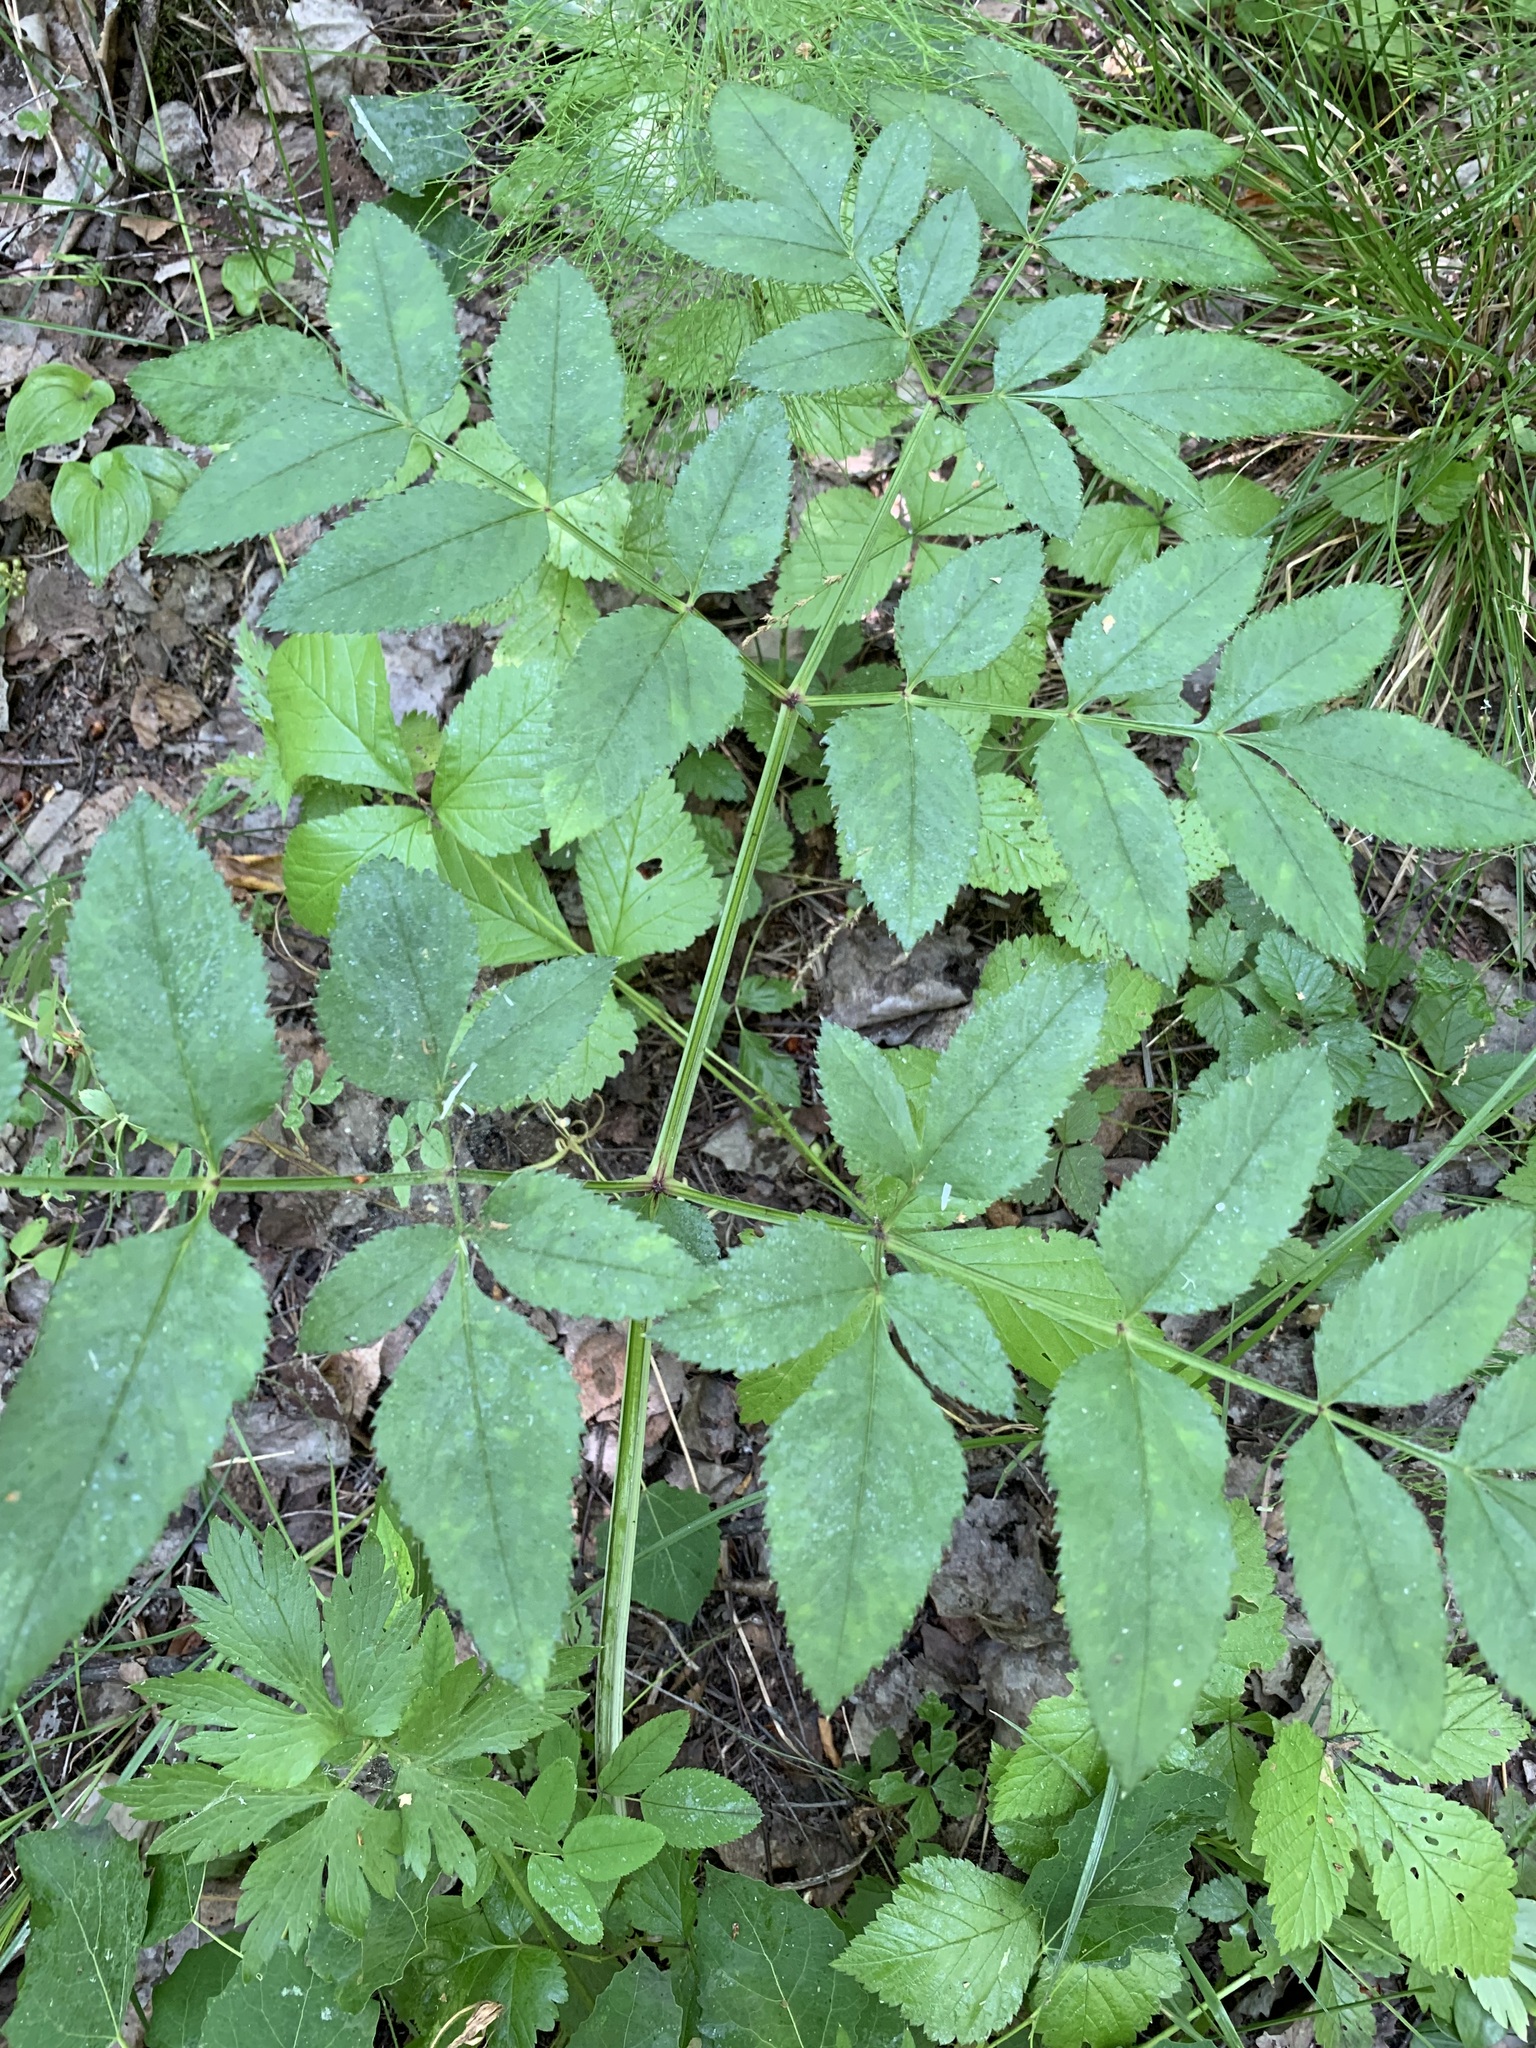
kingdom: Plantae
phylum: Tracheophyta
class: Magnoliopsida
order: Apiales
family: Apiaceae
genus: Angelica
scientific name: Angelica sylvestris
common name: Wild angelica
